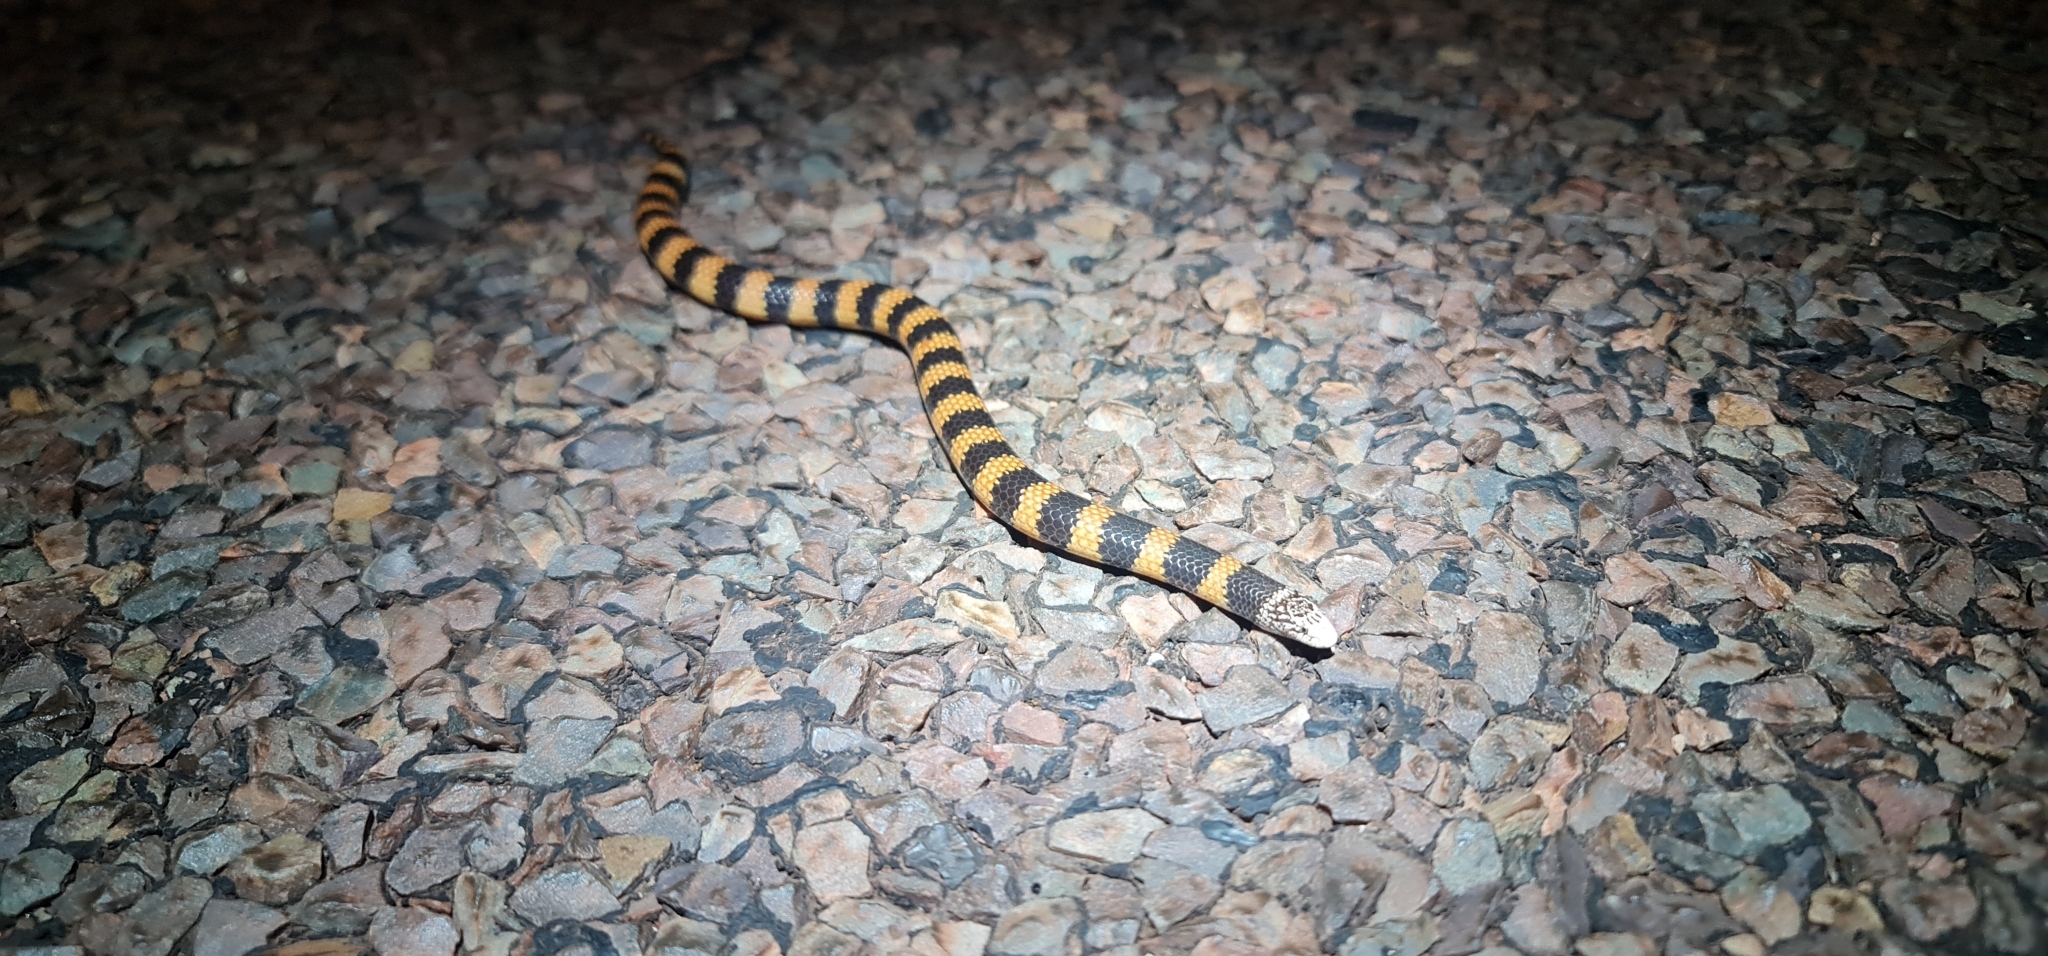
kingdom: Animalia
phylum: Chordata
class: Squamata
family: Elapidae
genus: Simoselaps
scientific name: Simoselaps bertholdi
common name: Desert banded snake
